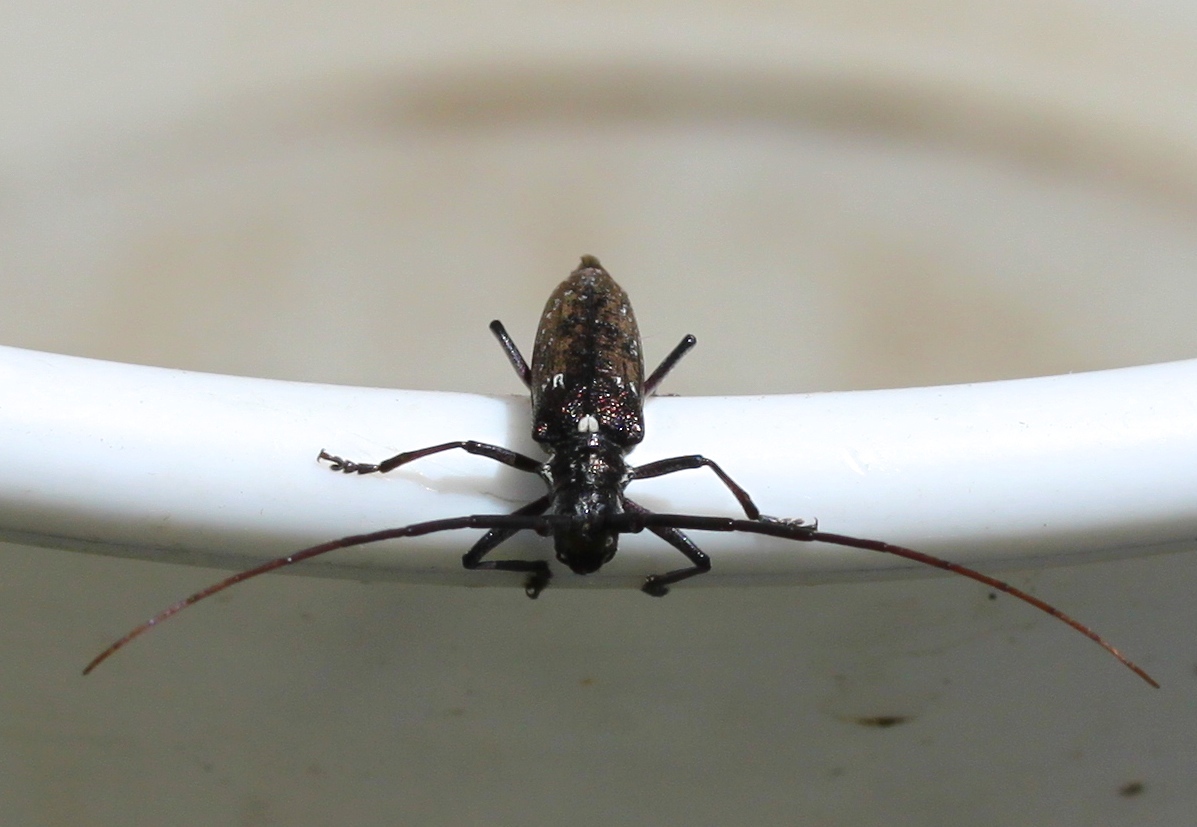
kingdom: Animalia
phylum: Arthropoda
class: Insecta
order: Coleoptera
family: Cerambycidae
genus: Monochamus
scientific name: Monochamus scutellatus
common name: White-spotted sawyer beetle
